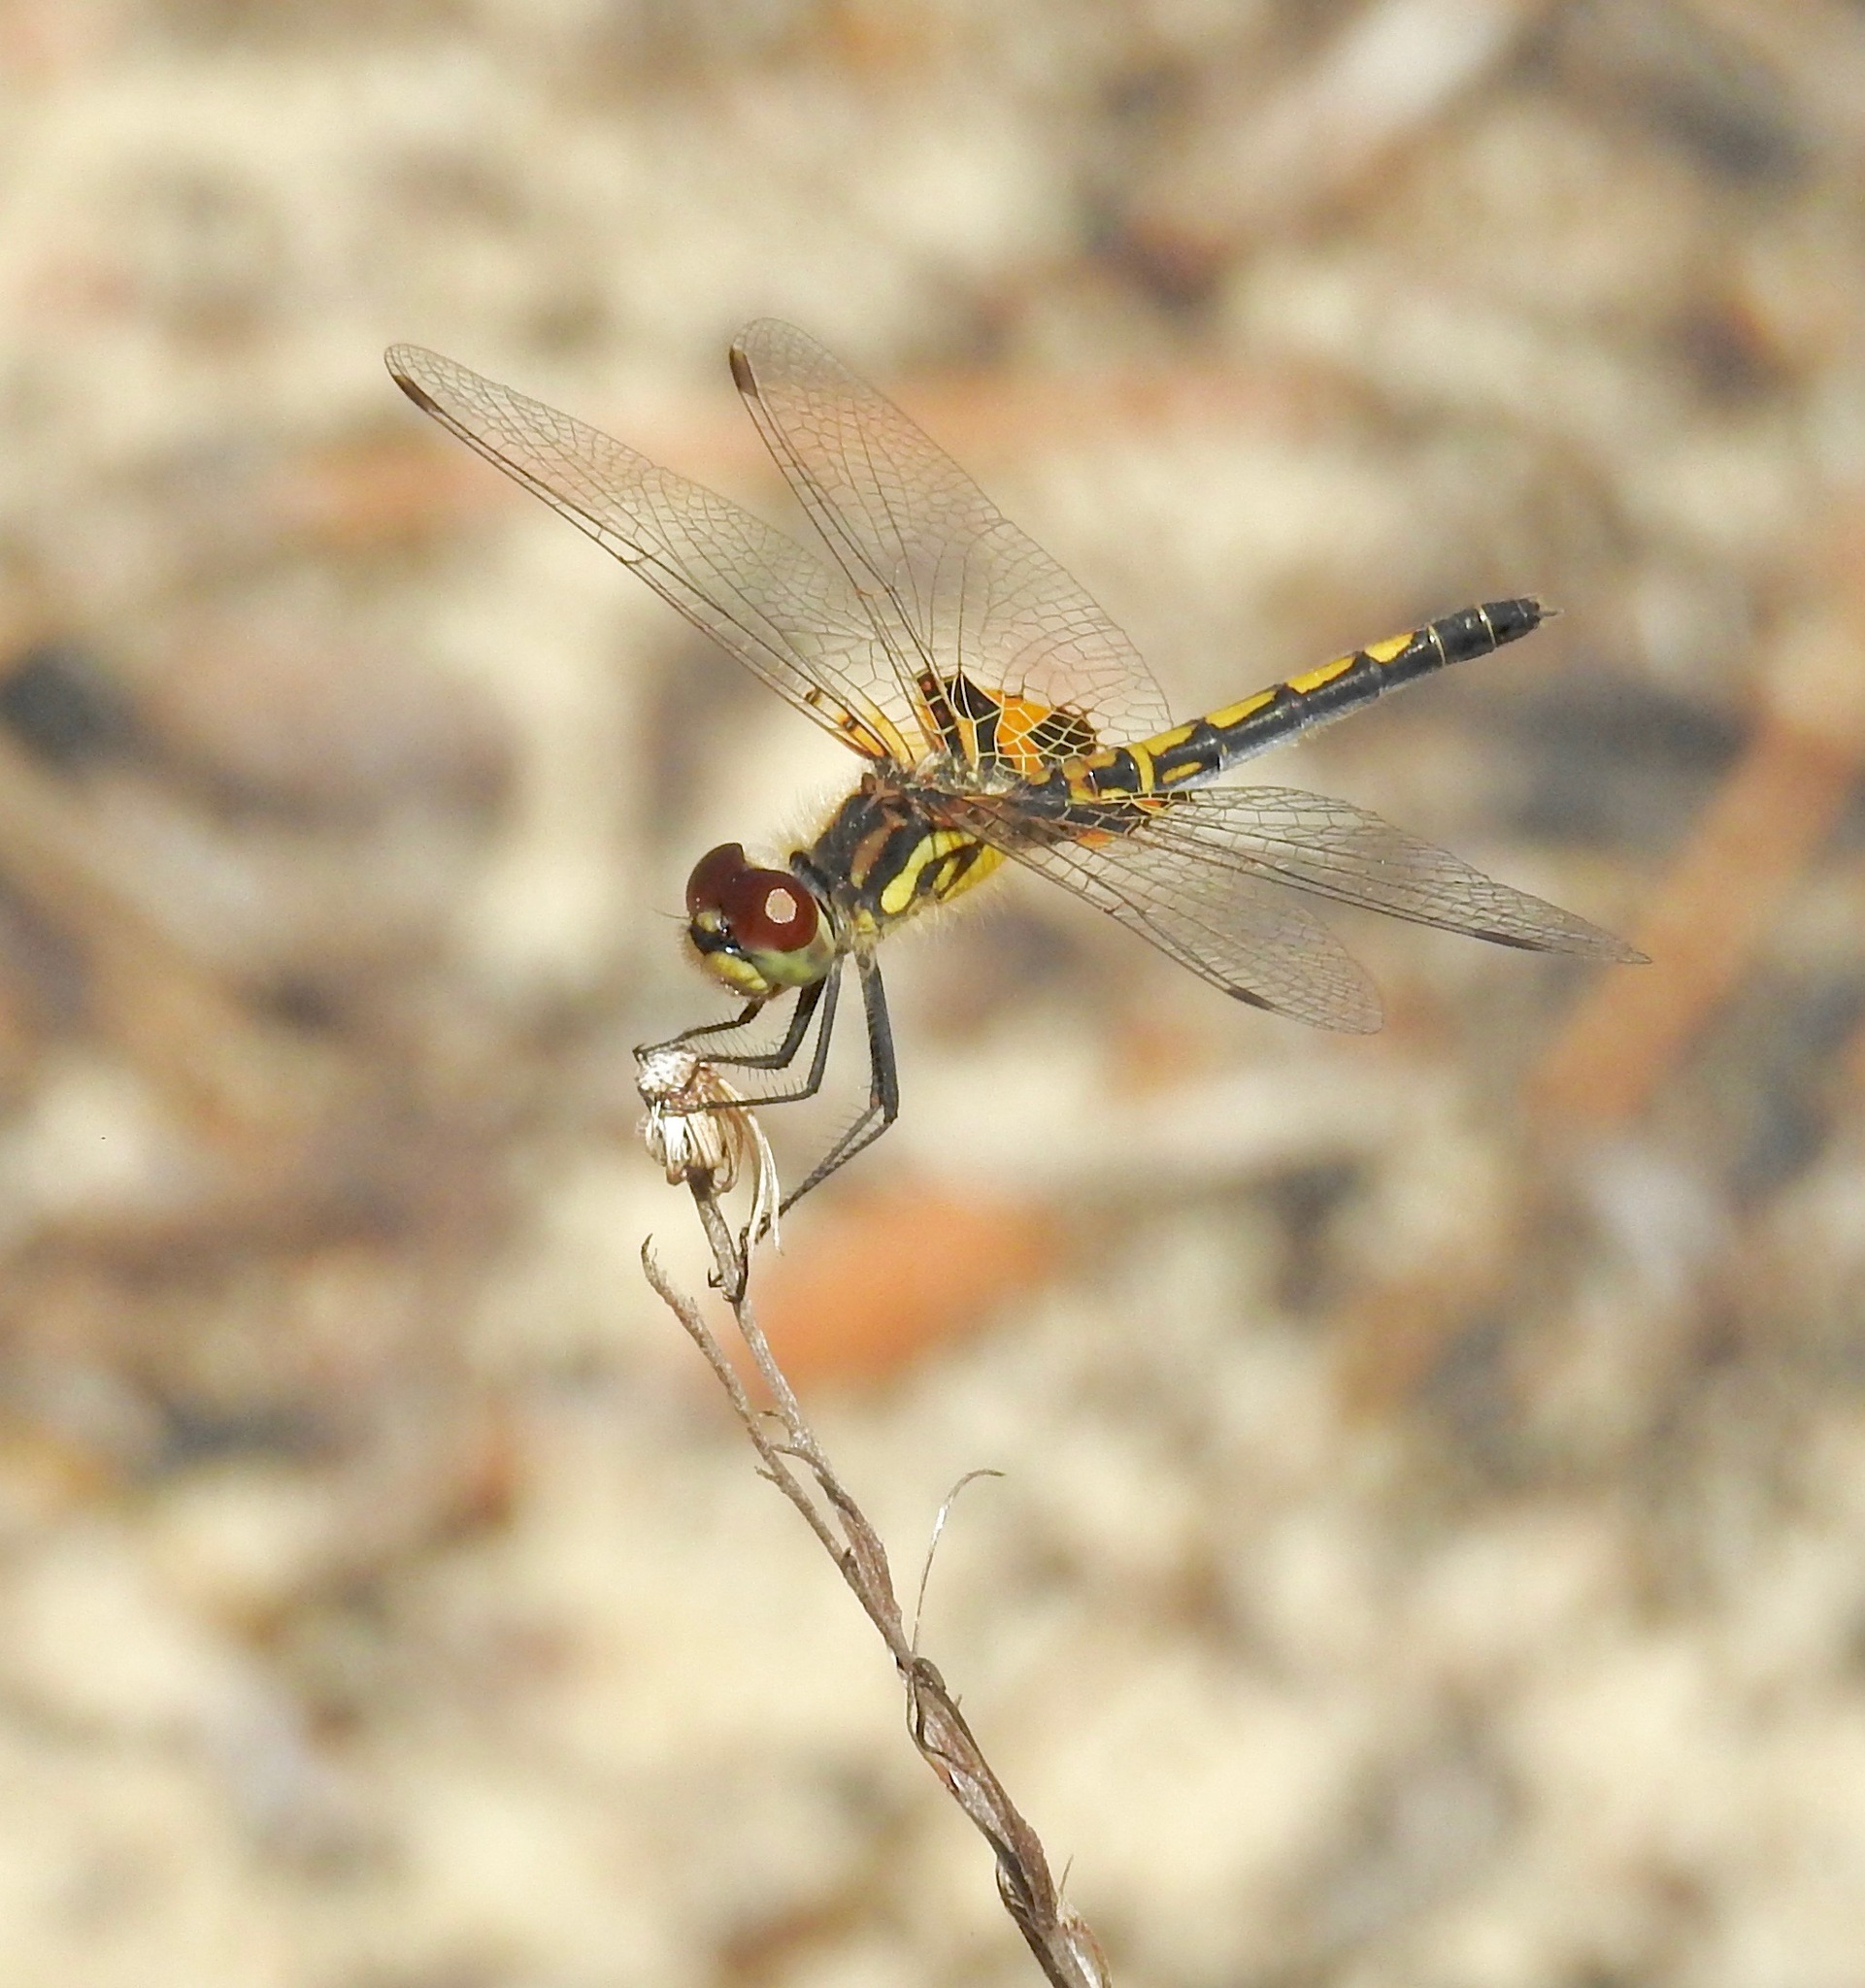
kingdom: Animalia
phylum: Arthropoda
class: Insecta
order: Odonata
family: Libellulidae
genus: Celithemis
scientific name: Celithemis ornata
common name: Ornate pennant
